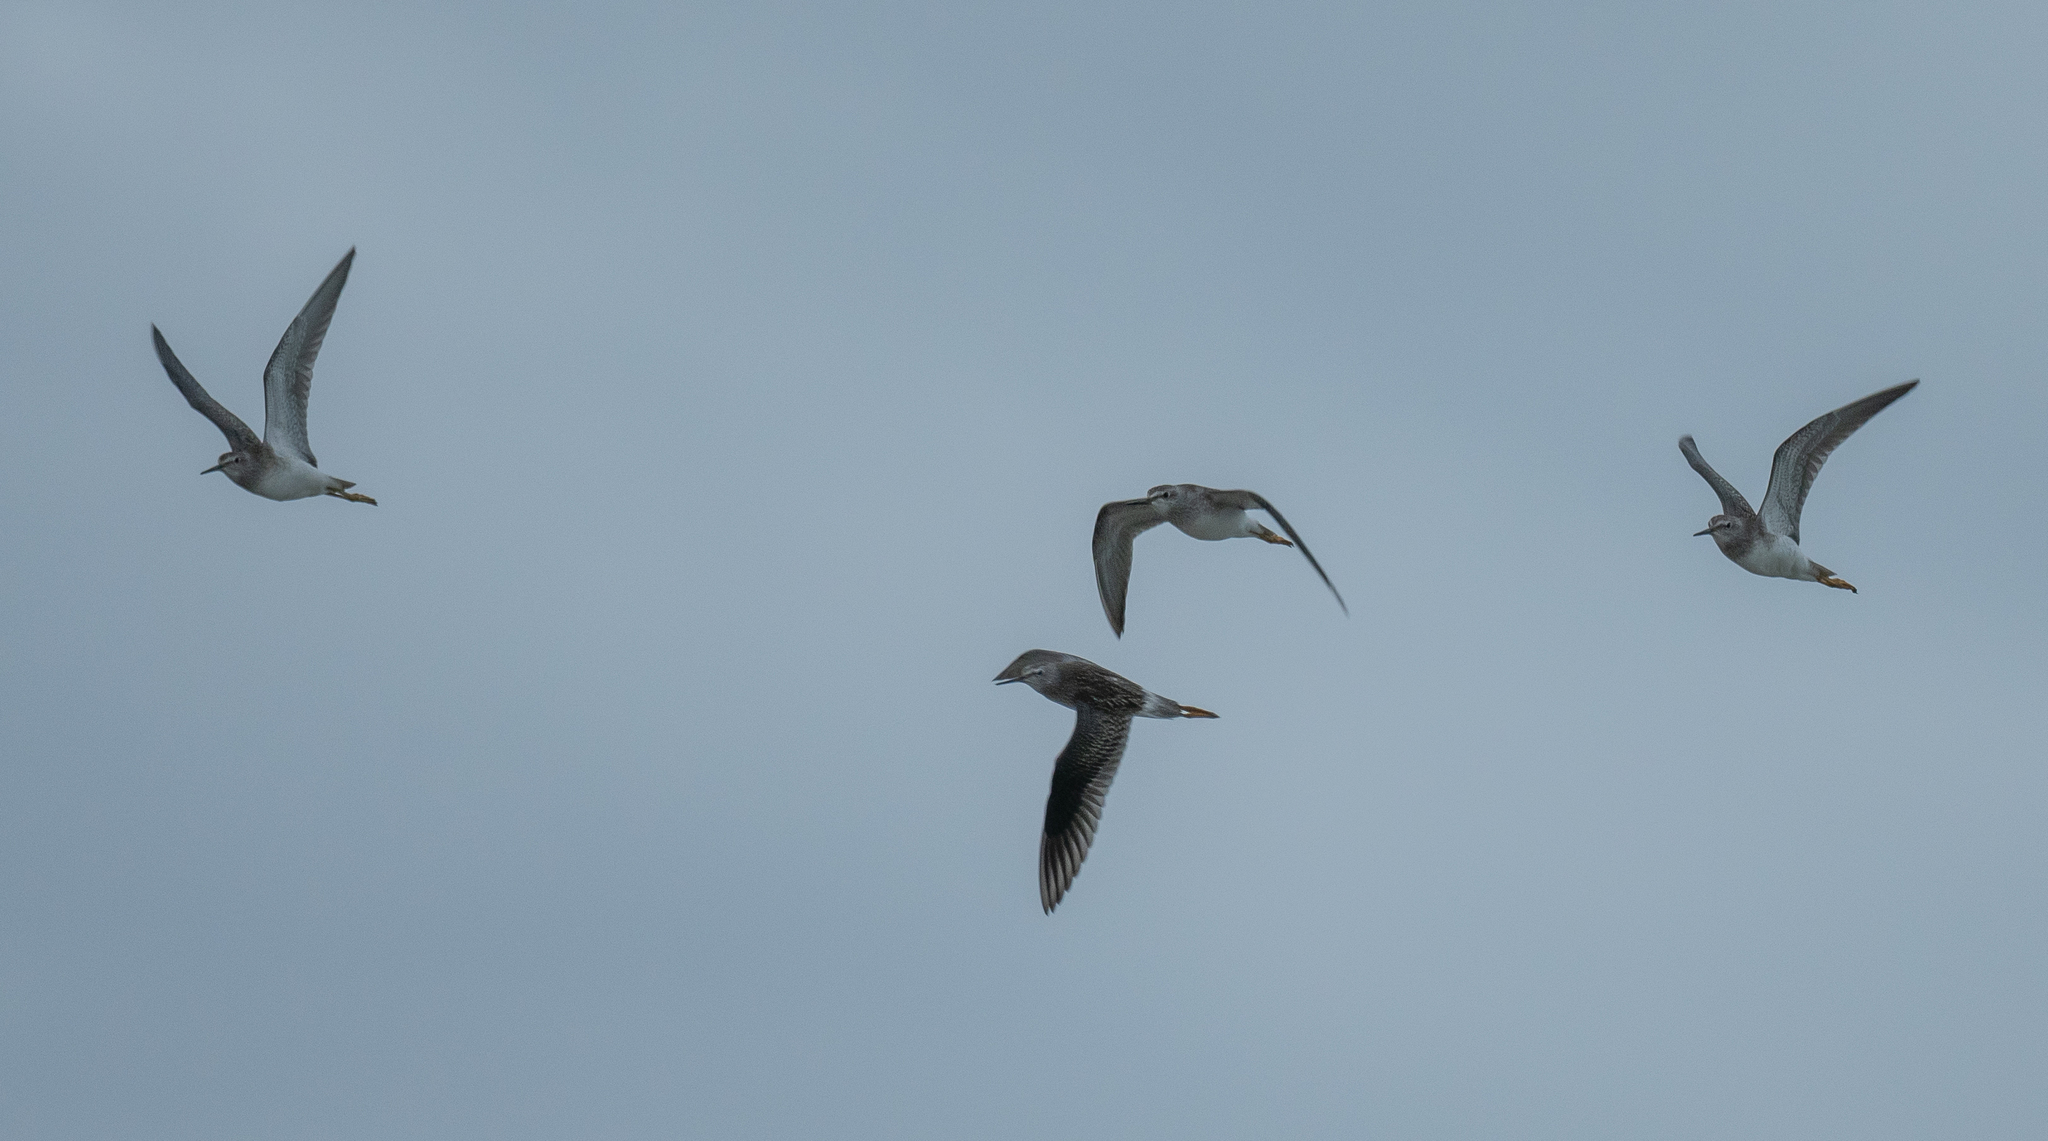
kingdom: Animalia
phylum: Chordata
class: Aves
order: Charadriiformes
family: Scolopacidae
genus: Tringa
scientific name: Tringa flavipes
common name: Lesser yellowlegs
